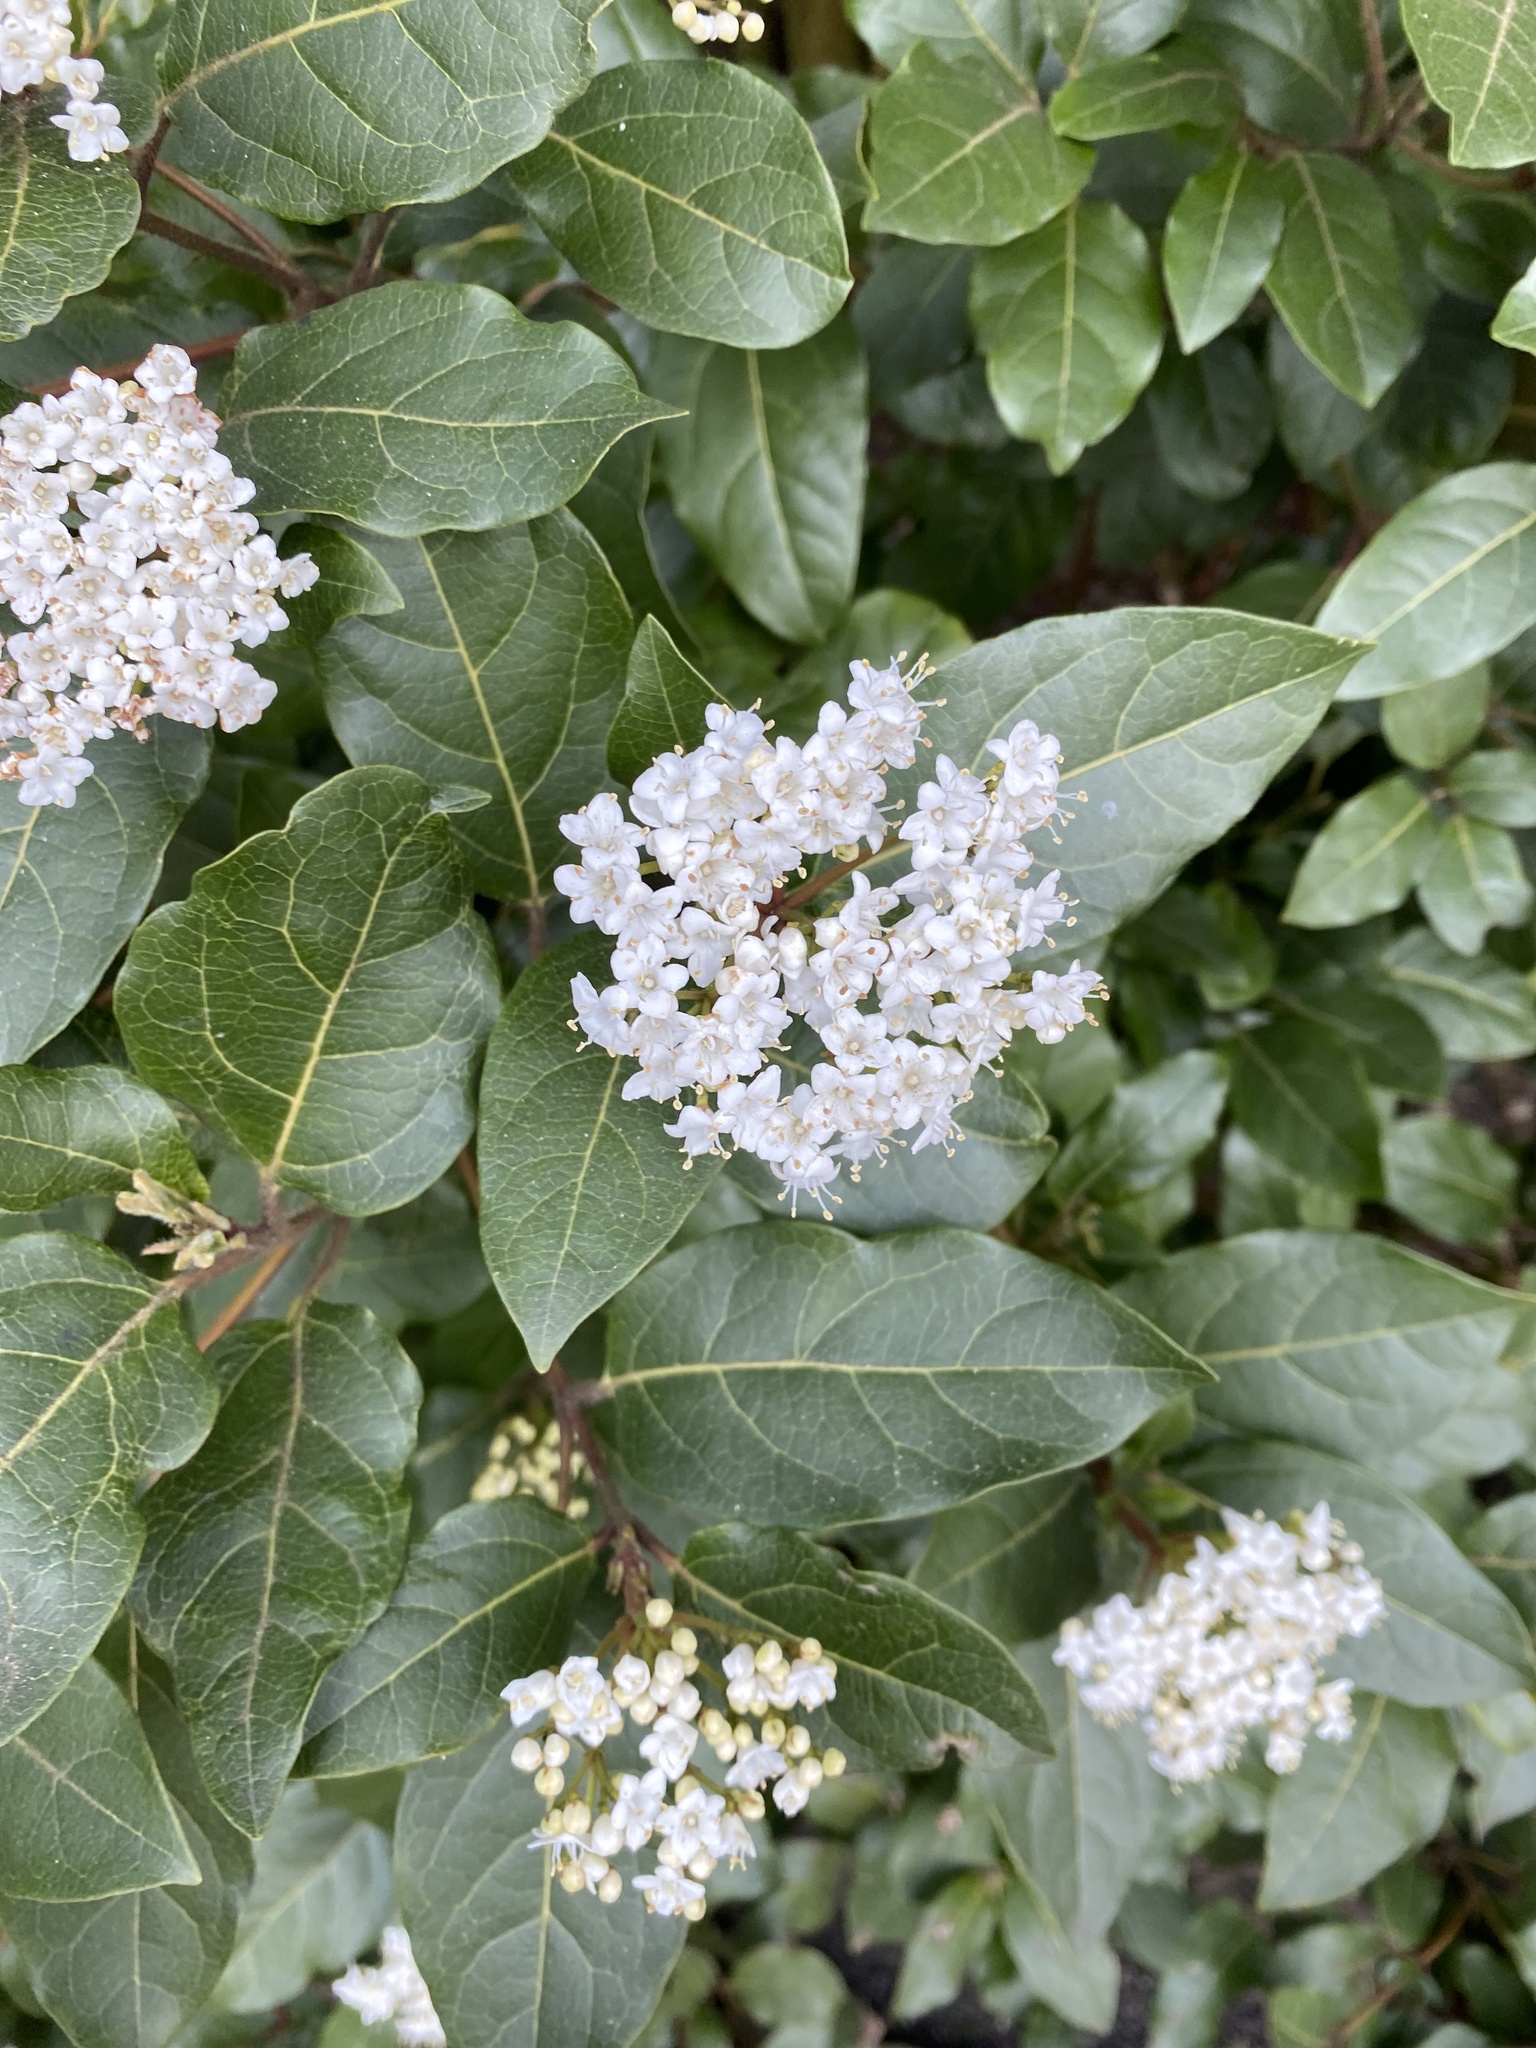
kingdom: Plantae
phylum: Tracheophyta
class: Magnoliopsida
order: Dipsacales
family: Viburnaceae
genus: Viburnum
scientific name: Viburnum tinus
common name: Laurustinus
